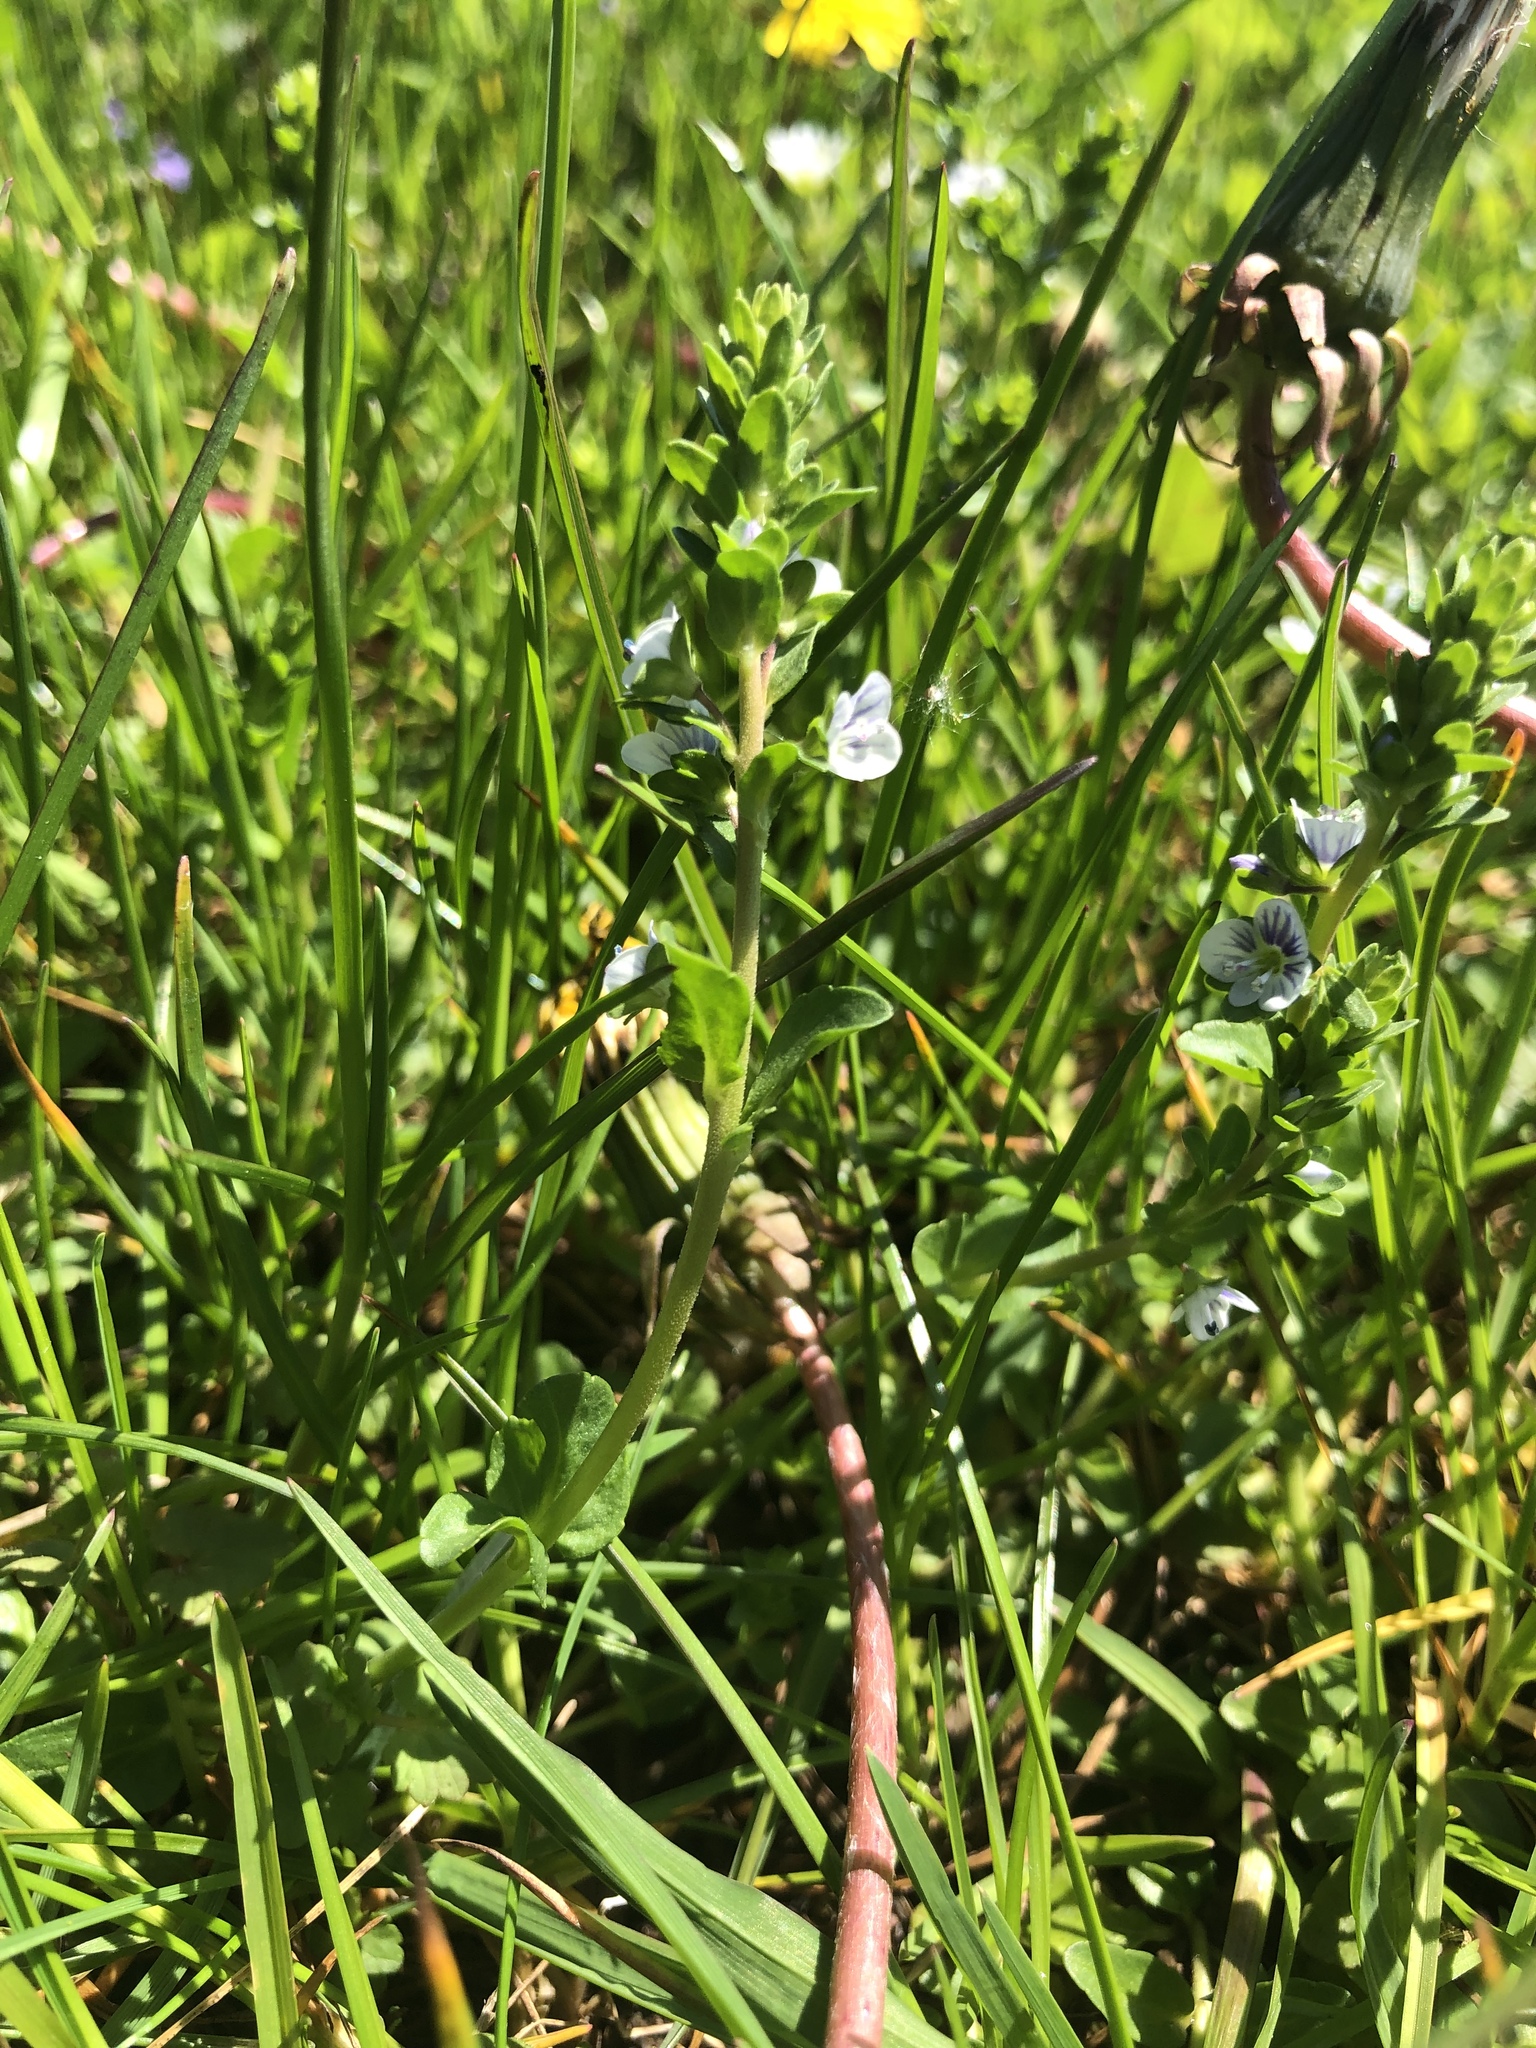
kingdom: Plantae
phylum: Tracheophyta
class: Magnoliopsida
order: Lamiales
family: Plantaginaceae
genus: Veronica
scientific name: Veronica serpyllifolia
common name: Thyme-leaved speedwell
